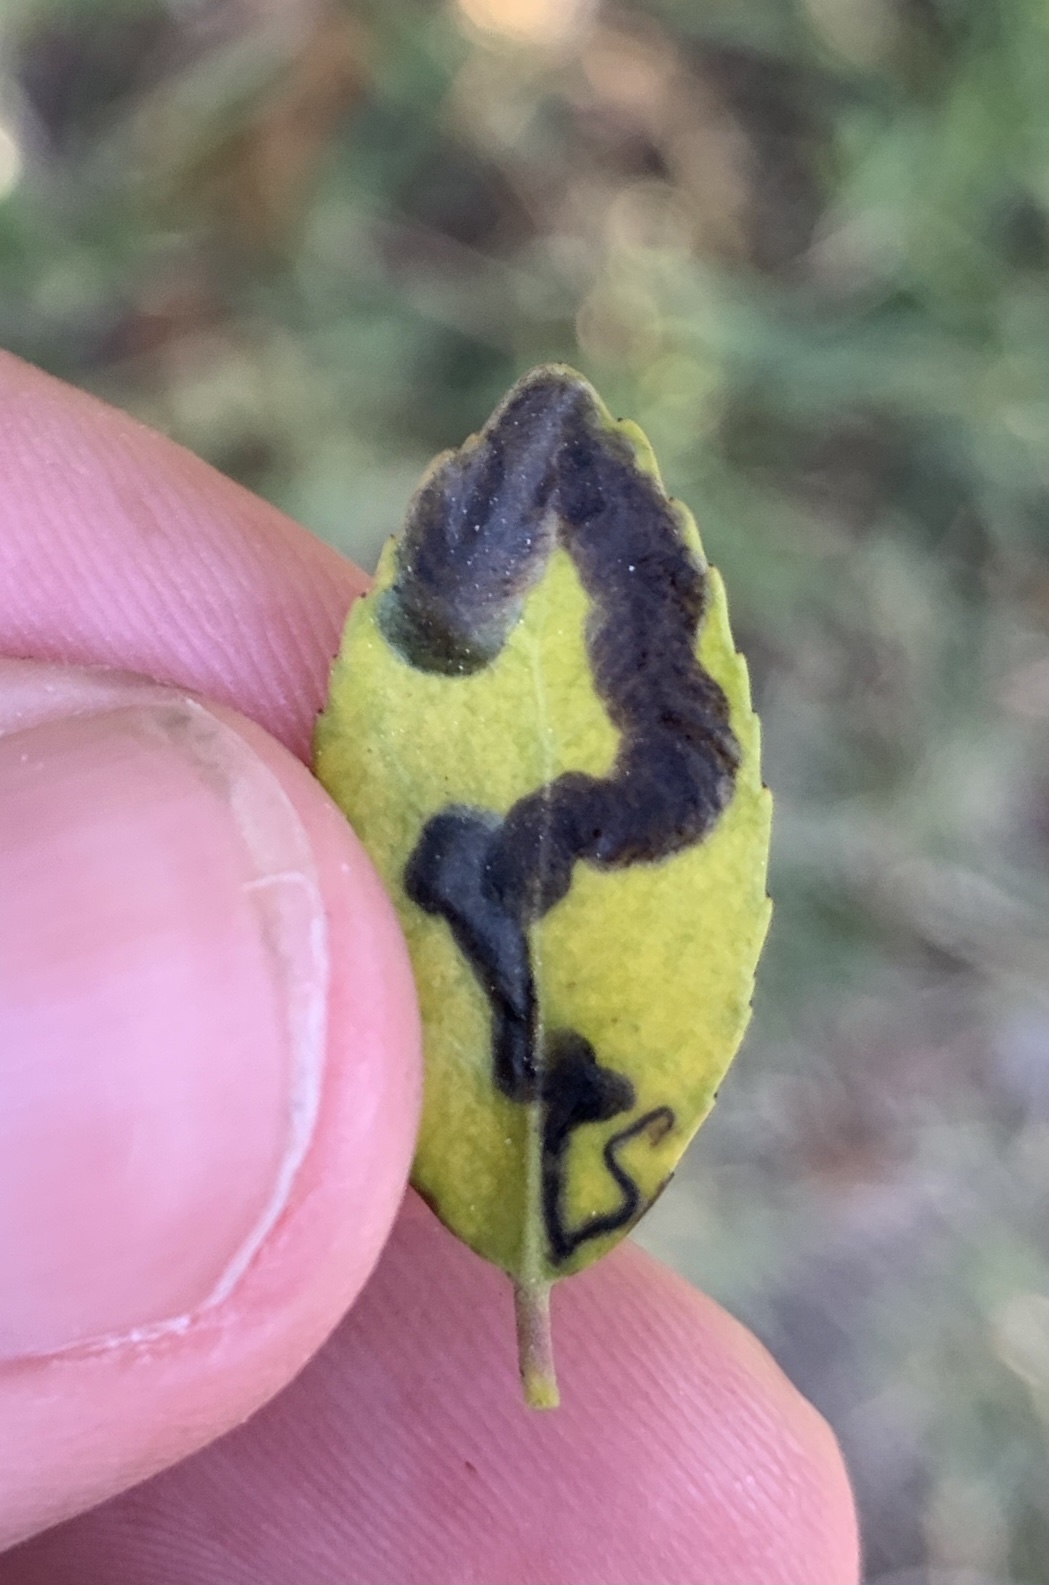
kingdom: Animalia
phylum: Arthropoda
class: Insecta
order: Diptera
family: Agromyzidae
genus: Phytomyza
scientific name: Phytomyza vomitoriae
